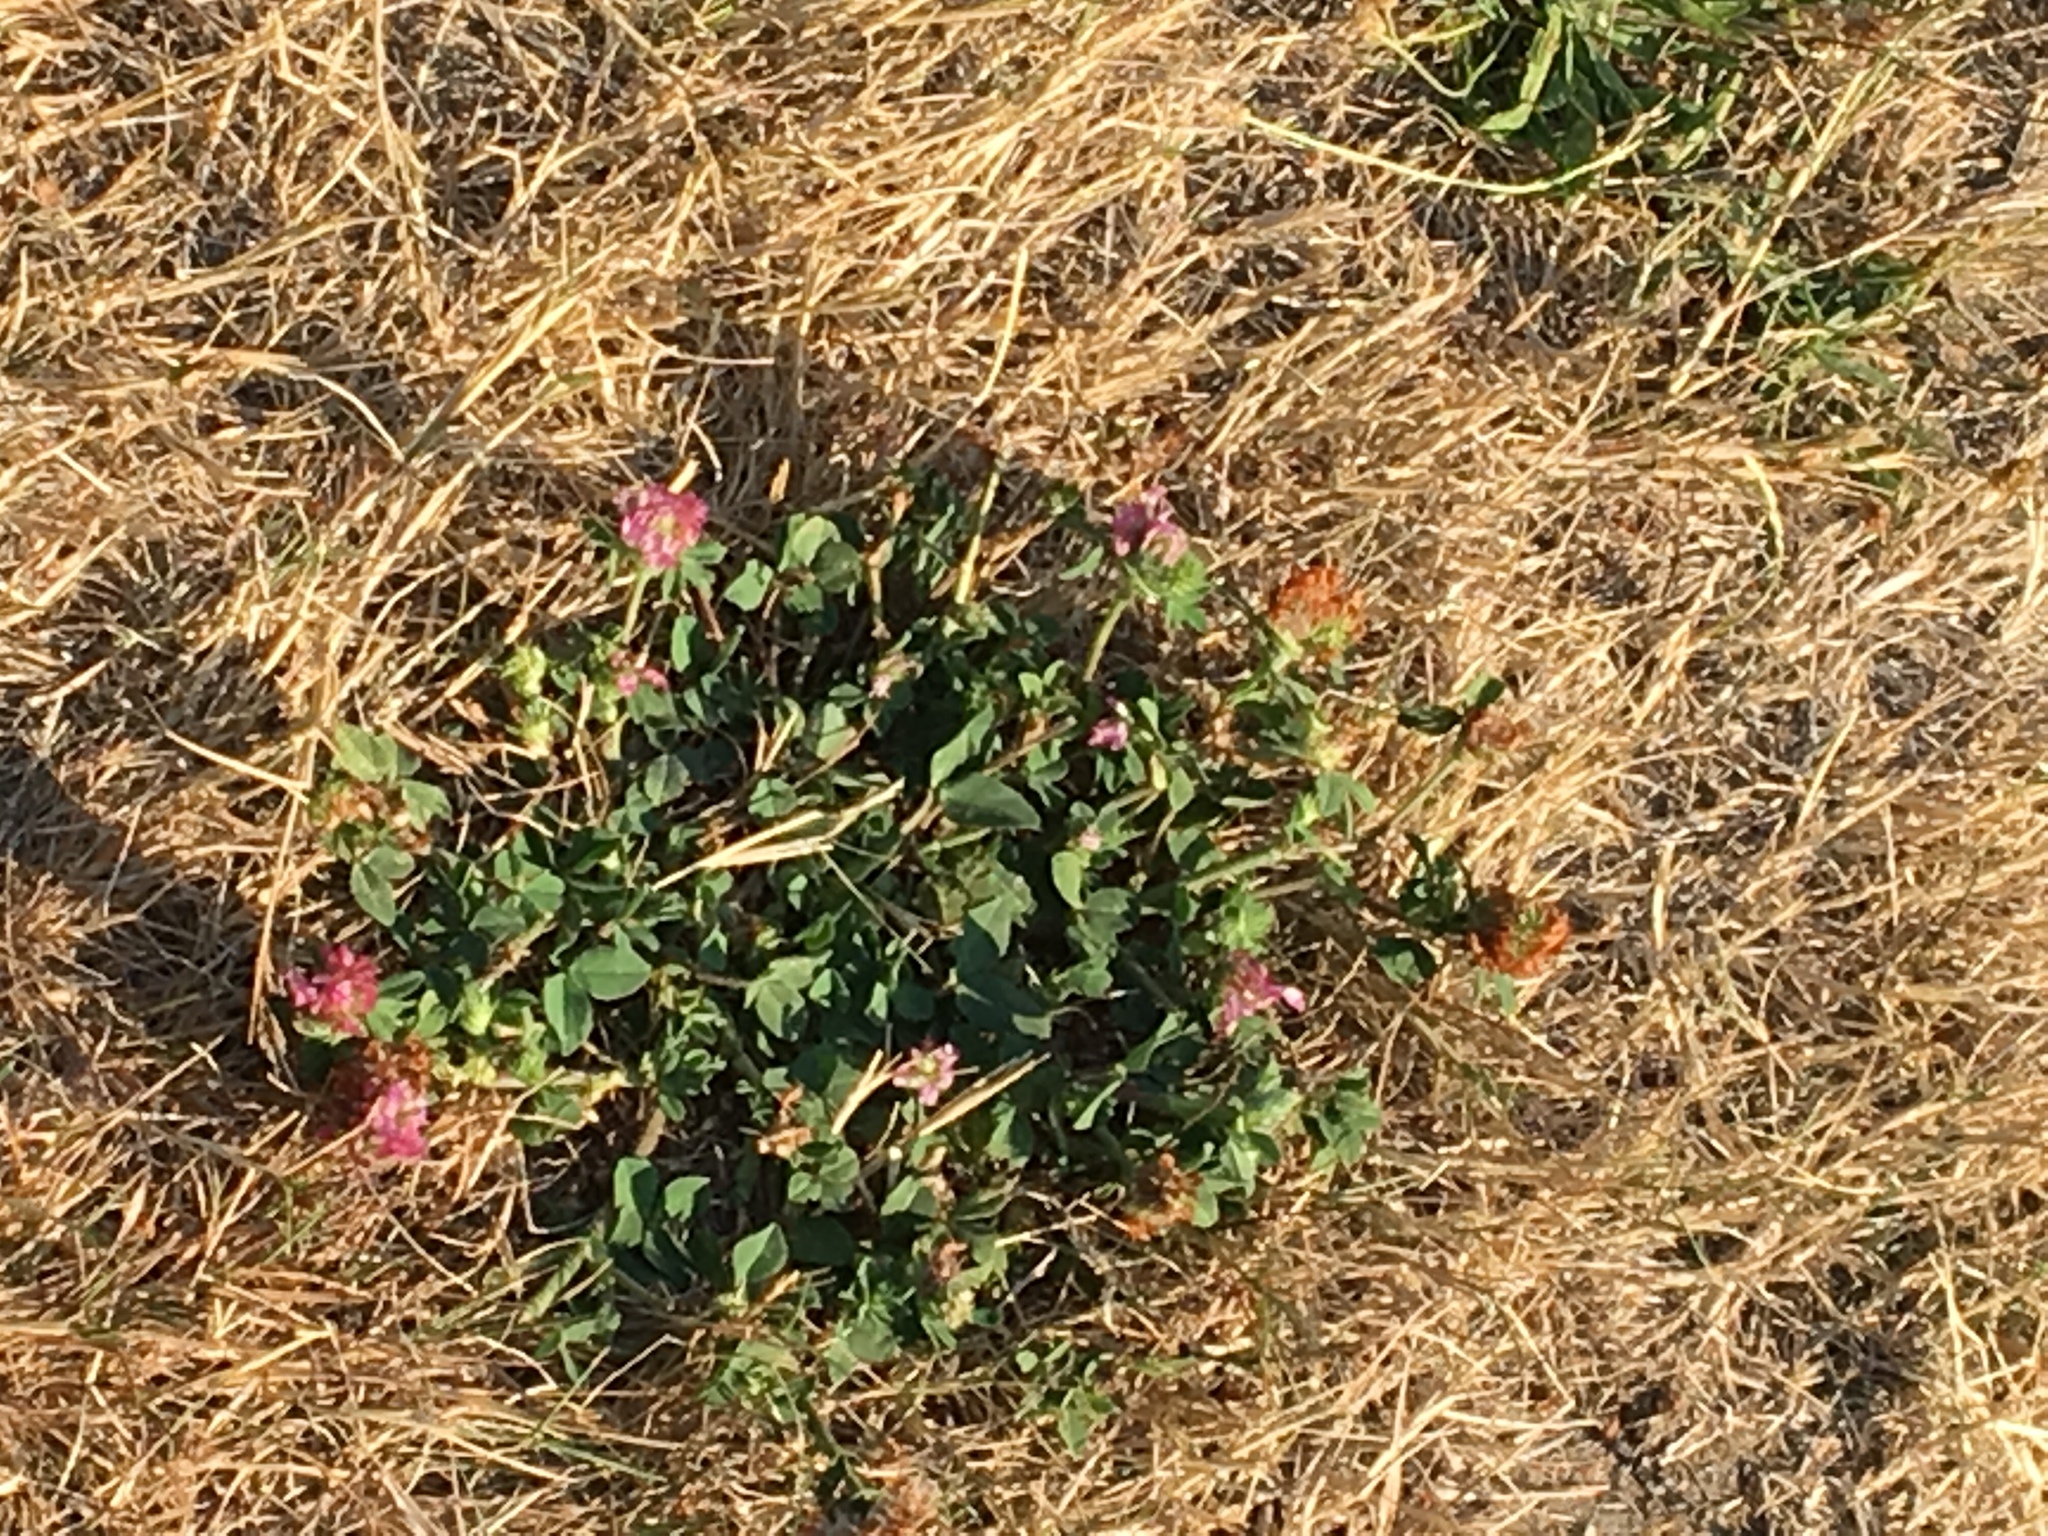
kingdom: Plantae
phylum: Tracheophyta
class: Magnoliopsida
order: Fabales
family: Fabaceae
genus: Trifolium
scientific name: Trifolium pratense
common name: Red clover
